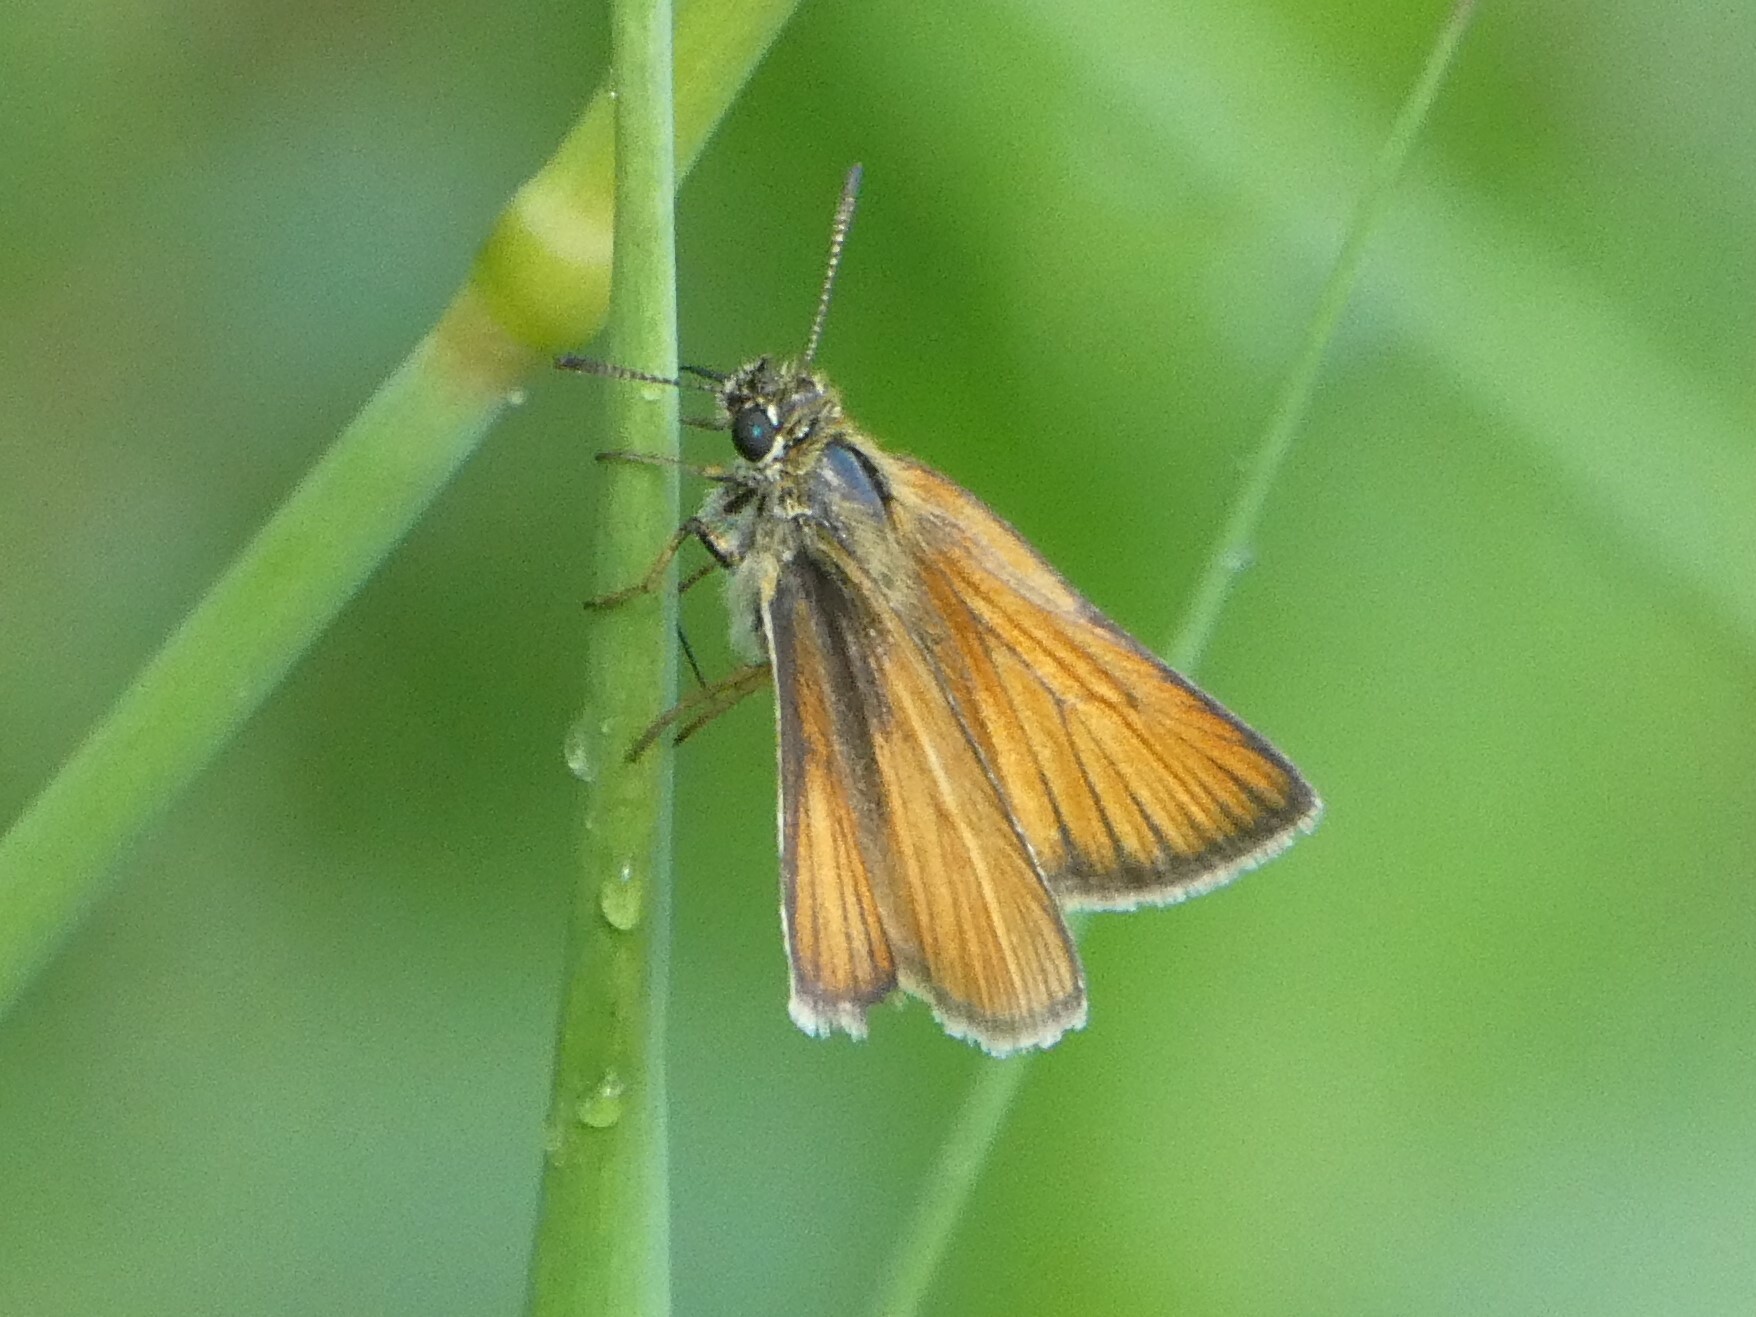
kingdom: Animalia
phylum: Arthropoda
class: Insecta
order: Lepidoptera
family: Hesperiidae
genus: Thymelicus
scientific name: Thymelicus lineola
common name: Essex skipper
